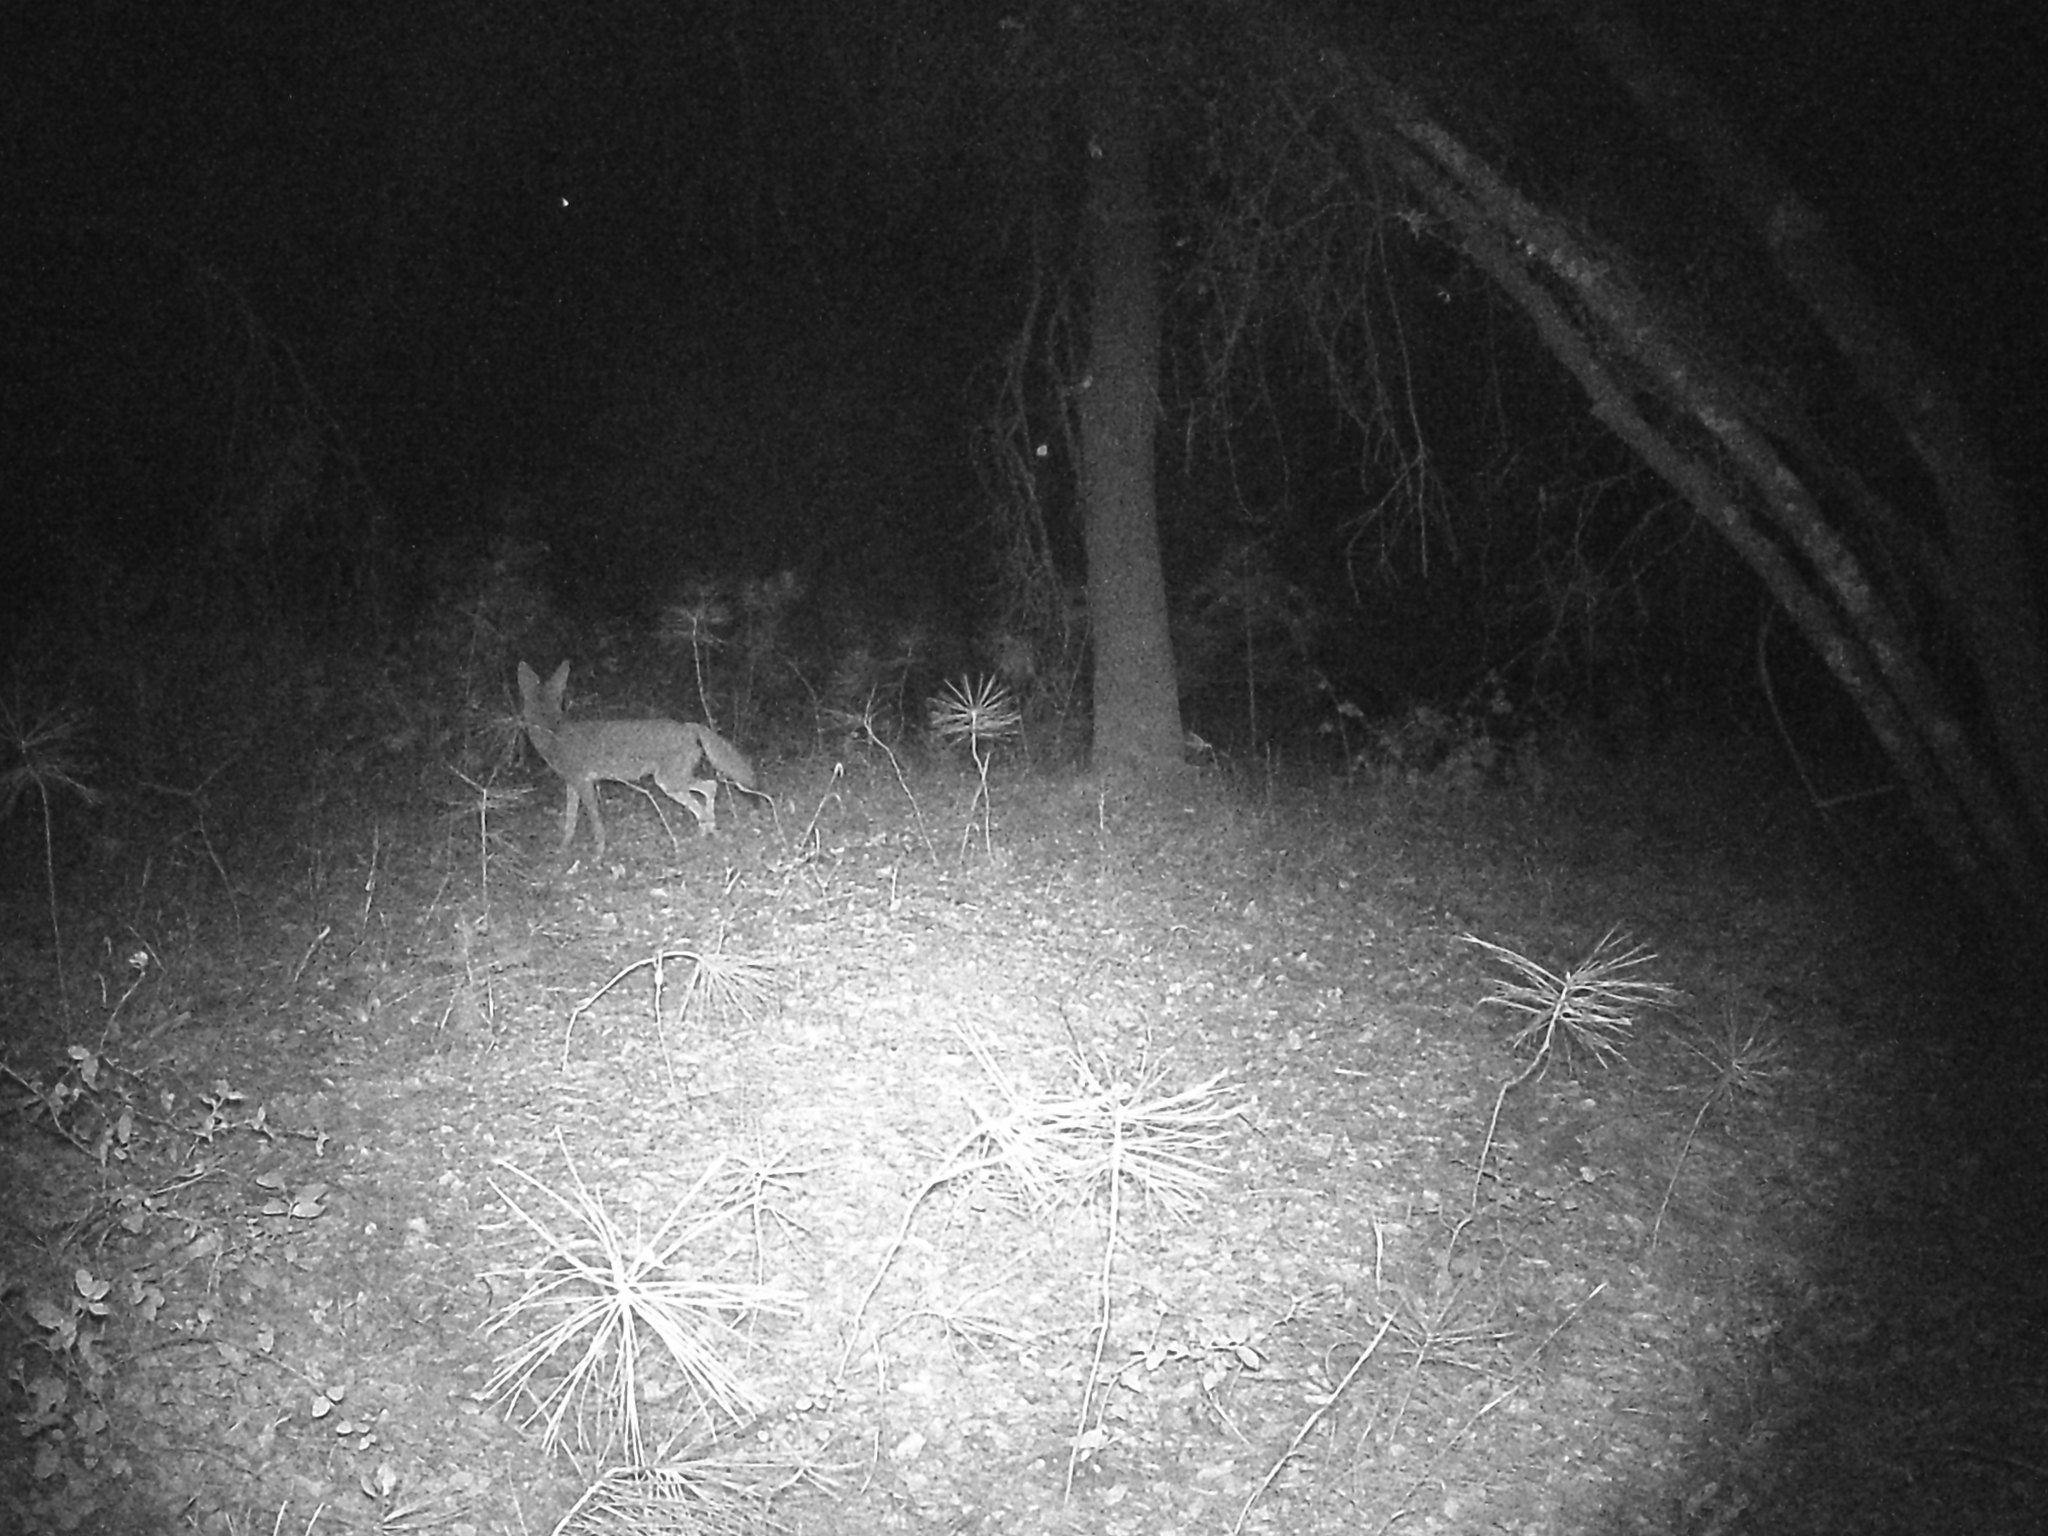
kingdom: Animalia
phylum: Chordata
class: Mammalia
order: Carnivora
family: Canidae
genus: Canis
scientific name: Canis latrans
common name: Coyote
